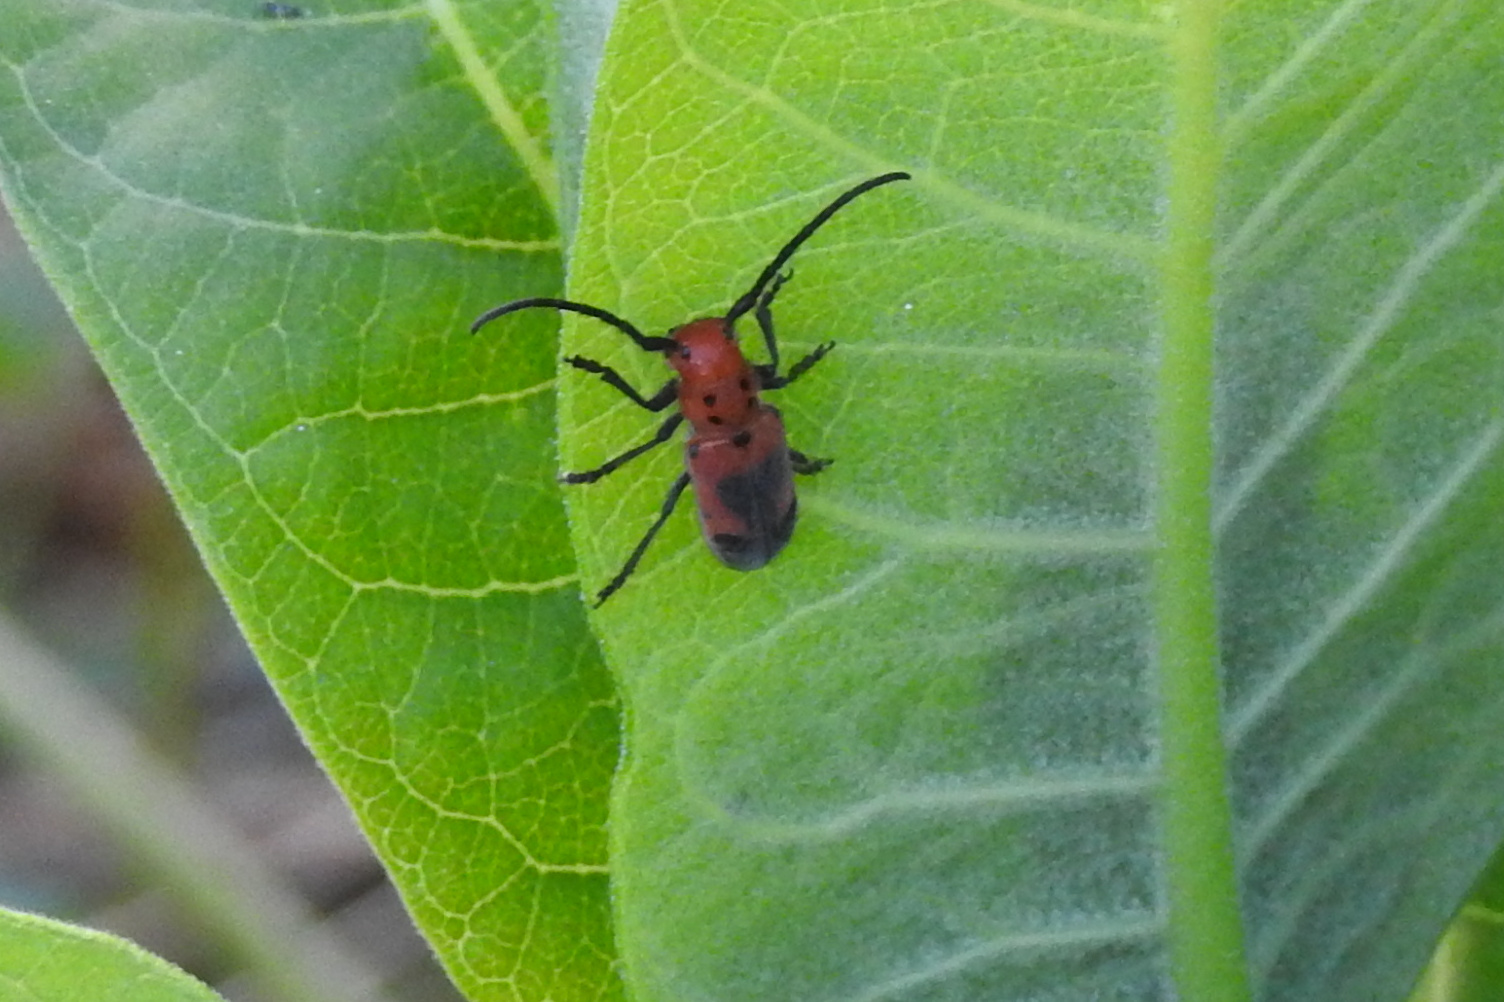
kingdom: Animalia
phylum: Arthropoda
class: Insecta
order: Coleoptera
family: Cerambycidae
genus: Tetraopes
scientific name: Tetraopes tetrophthalmus
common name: Red milkweed beetle
